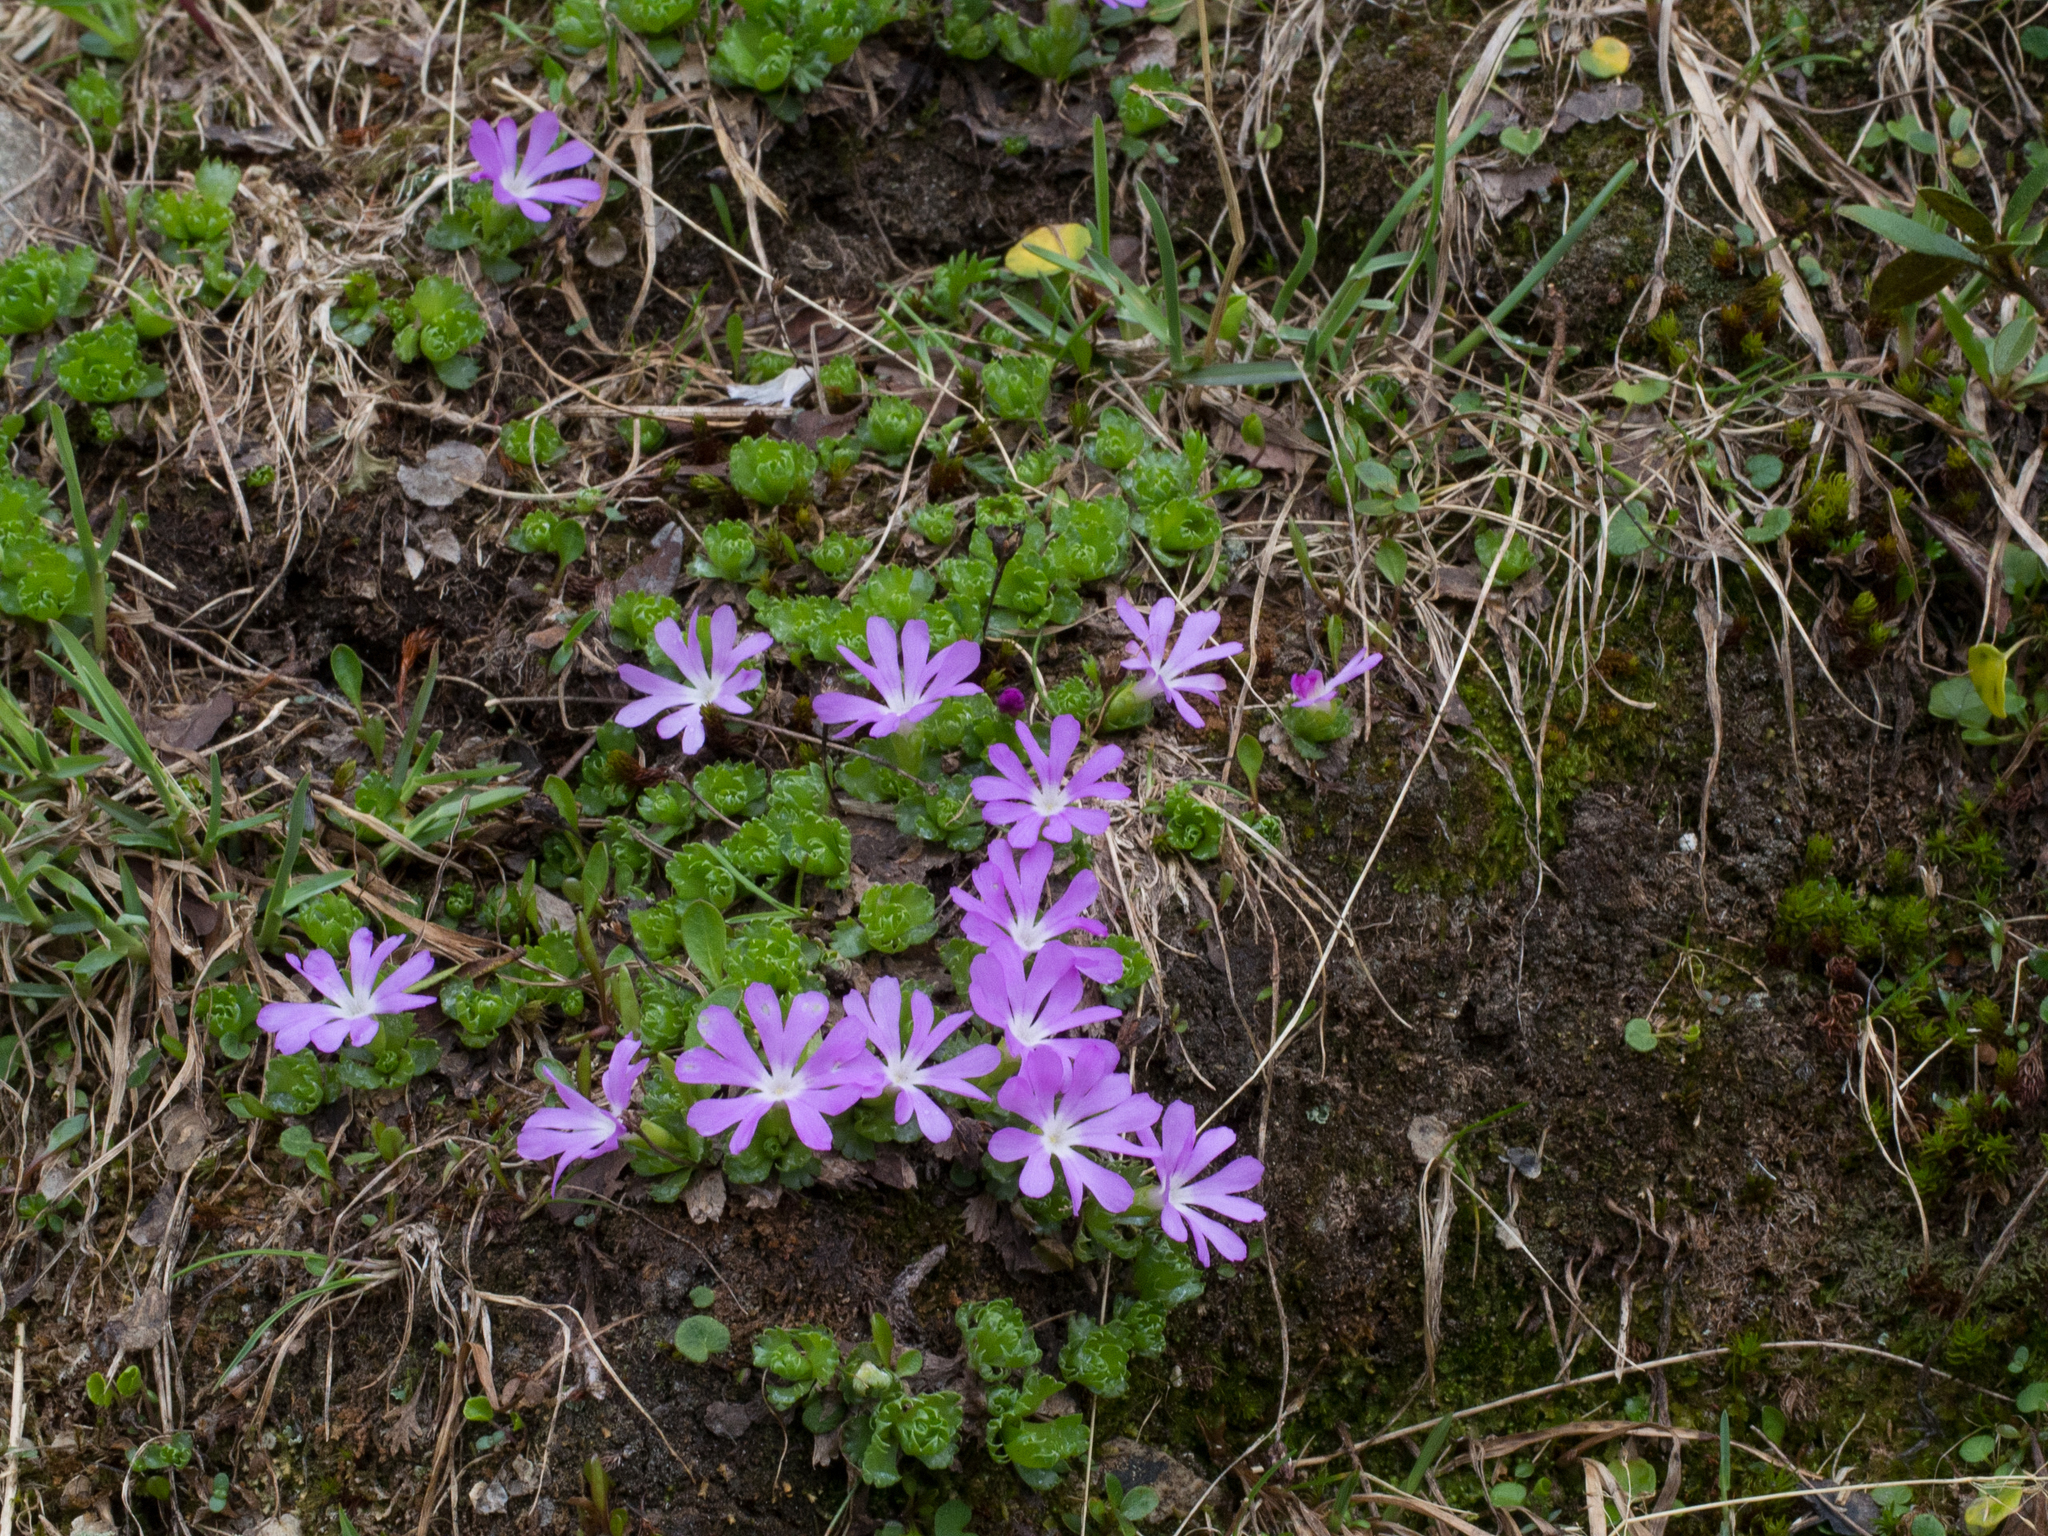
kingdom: Plantae
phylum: Tracheophyta
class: Magnoliopsida
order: Ericales
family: Primulaceae
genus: Primula
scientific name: Primula minima
